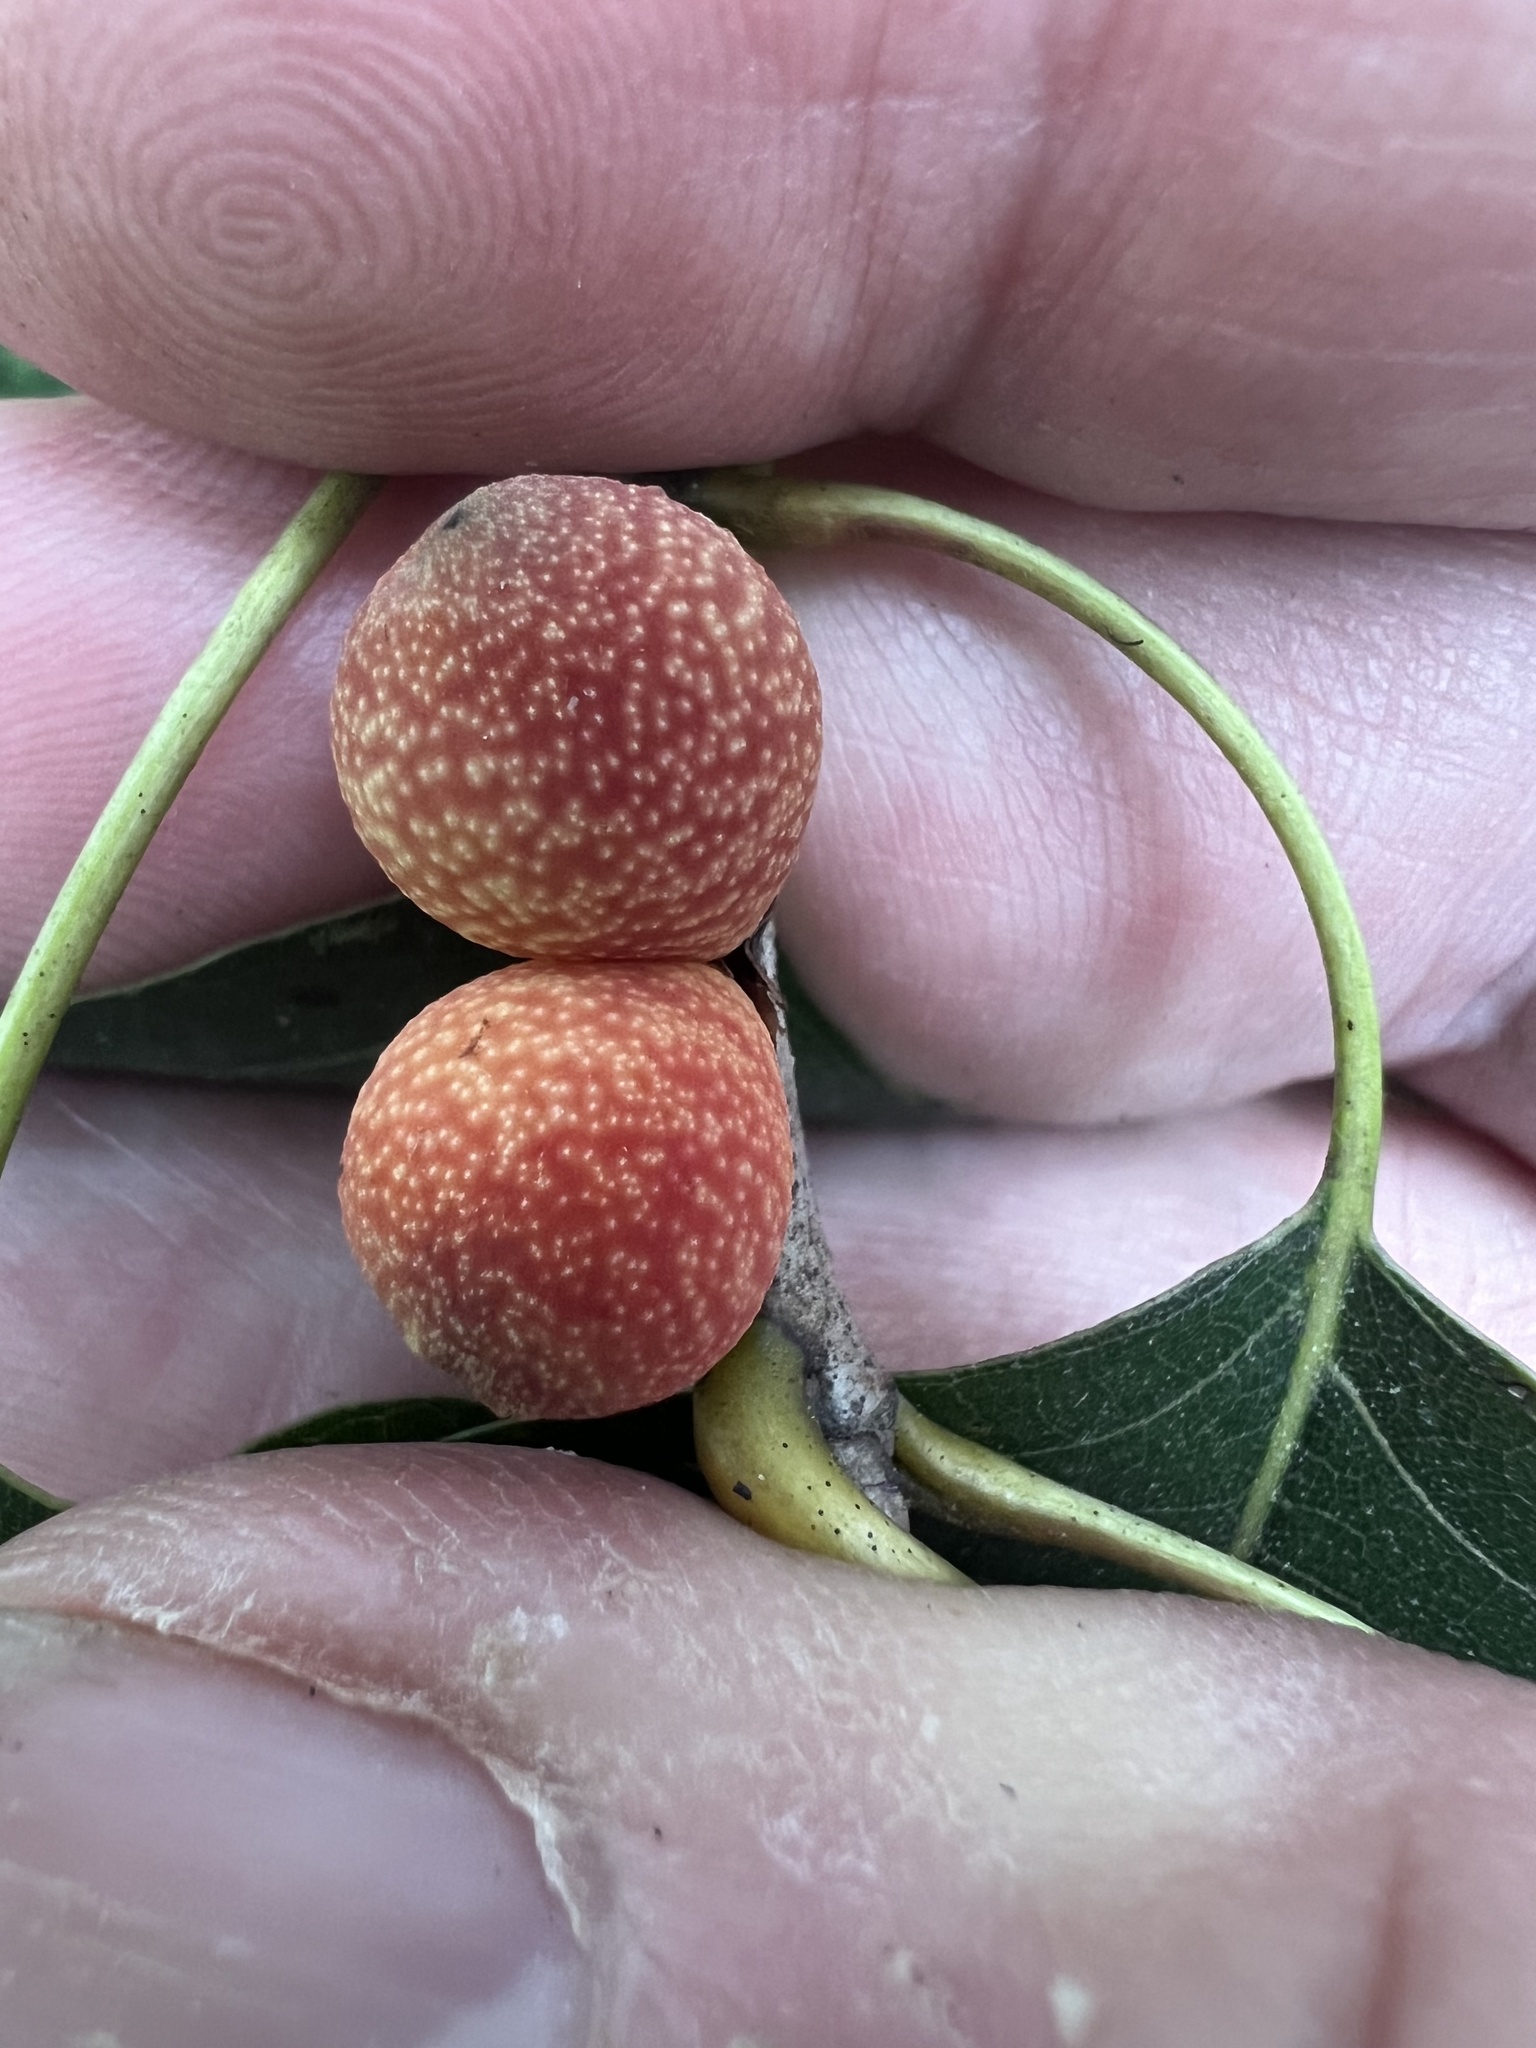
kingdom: Animalia
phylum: Arthropoda
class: Insecta
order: Hymenoptera
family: Cynipidae
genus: Kokkocynips
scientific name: Kokkocynips imbricariae
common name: Banded bullet gall wasp
